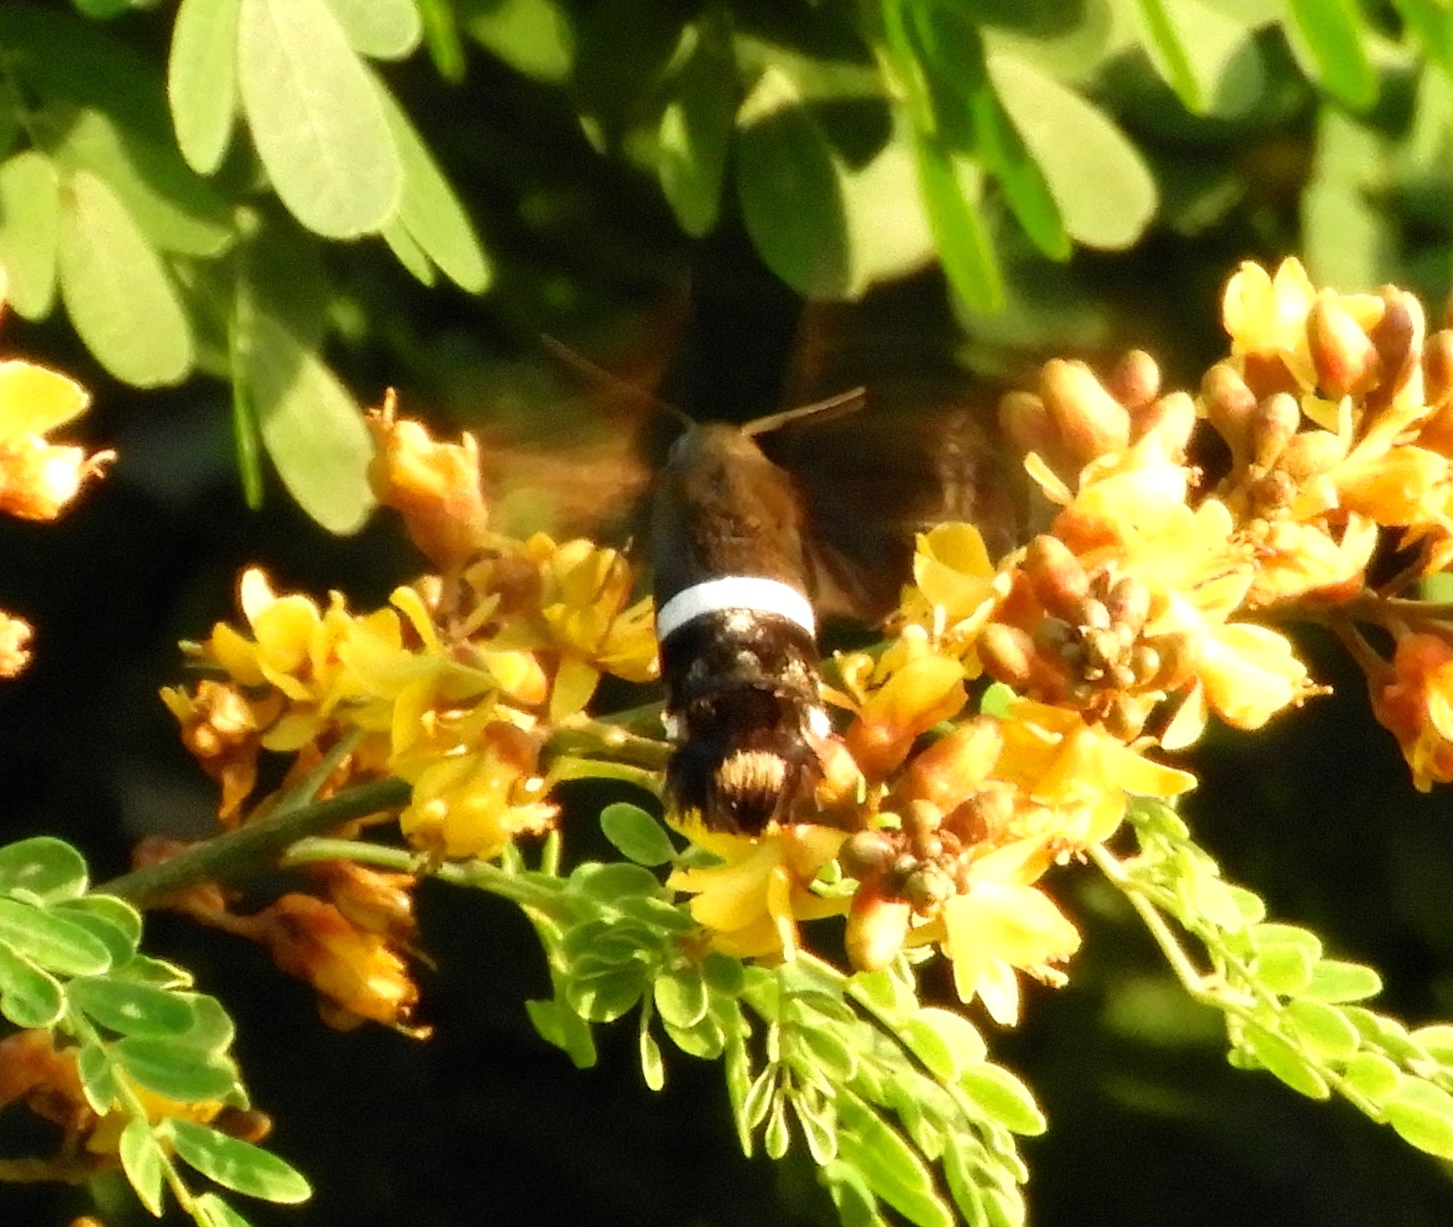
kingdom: Animalia
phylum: Arthropoda
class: Insecta
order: Lepidoptera
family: Sphingidae
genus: Aellopos
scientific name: Aellopos
